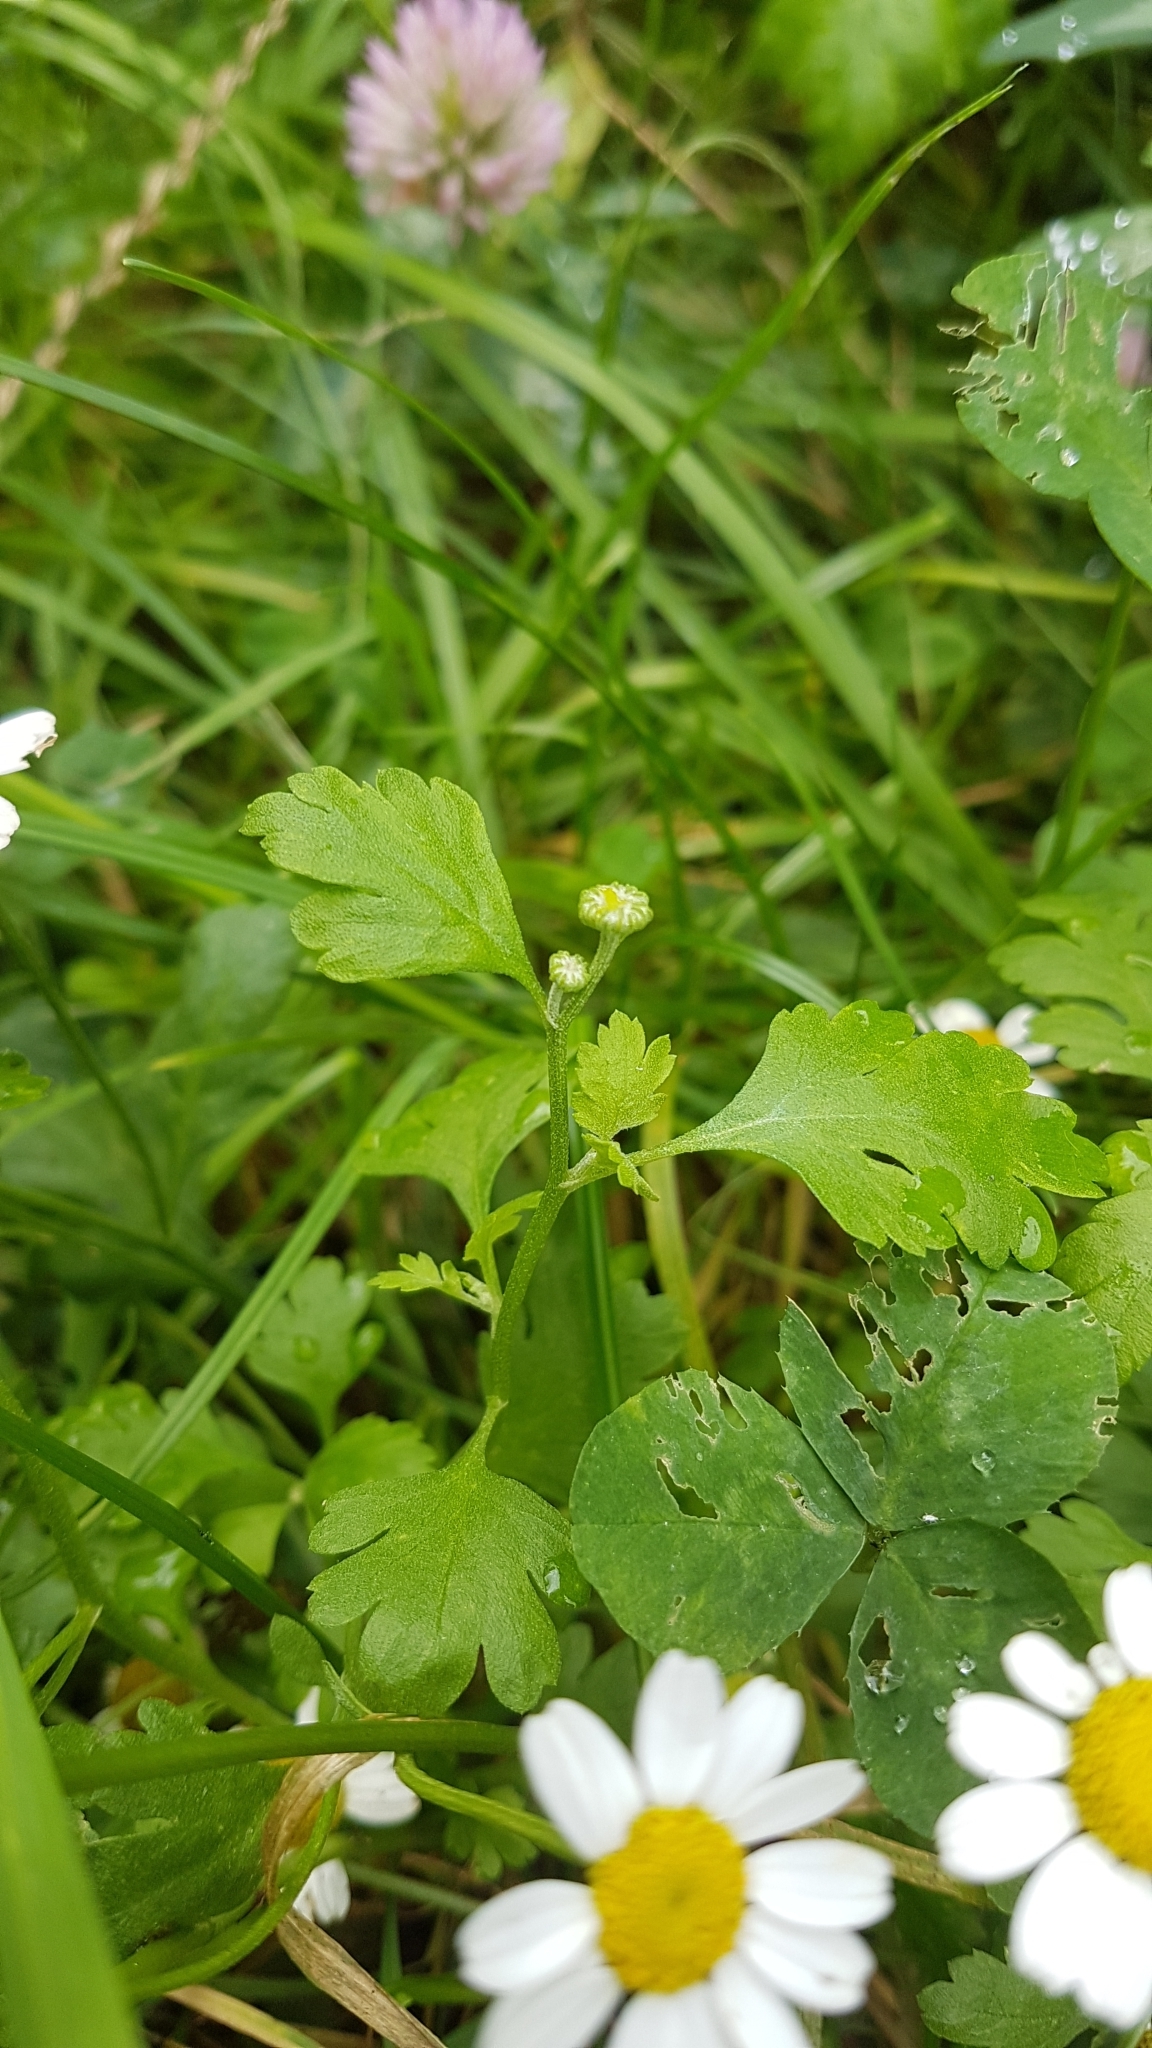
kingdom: Plantae
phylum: Tracheophyta
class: Magnoliopsida
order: Asterales
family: Asteraceae
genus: Tanacetum
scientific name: Tanacetum parthenium
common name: Feverfew
